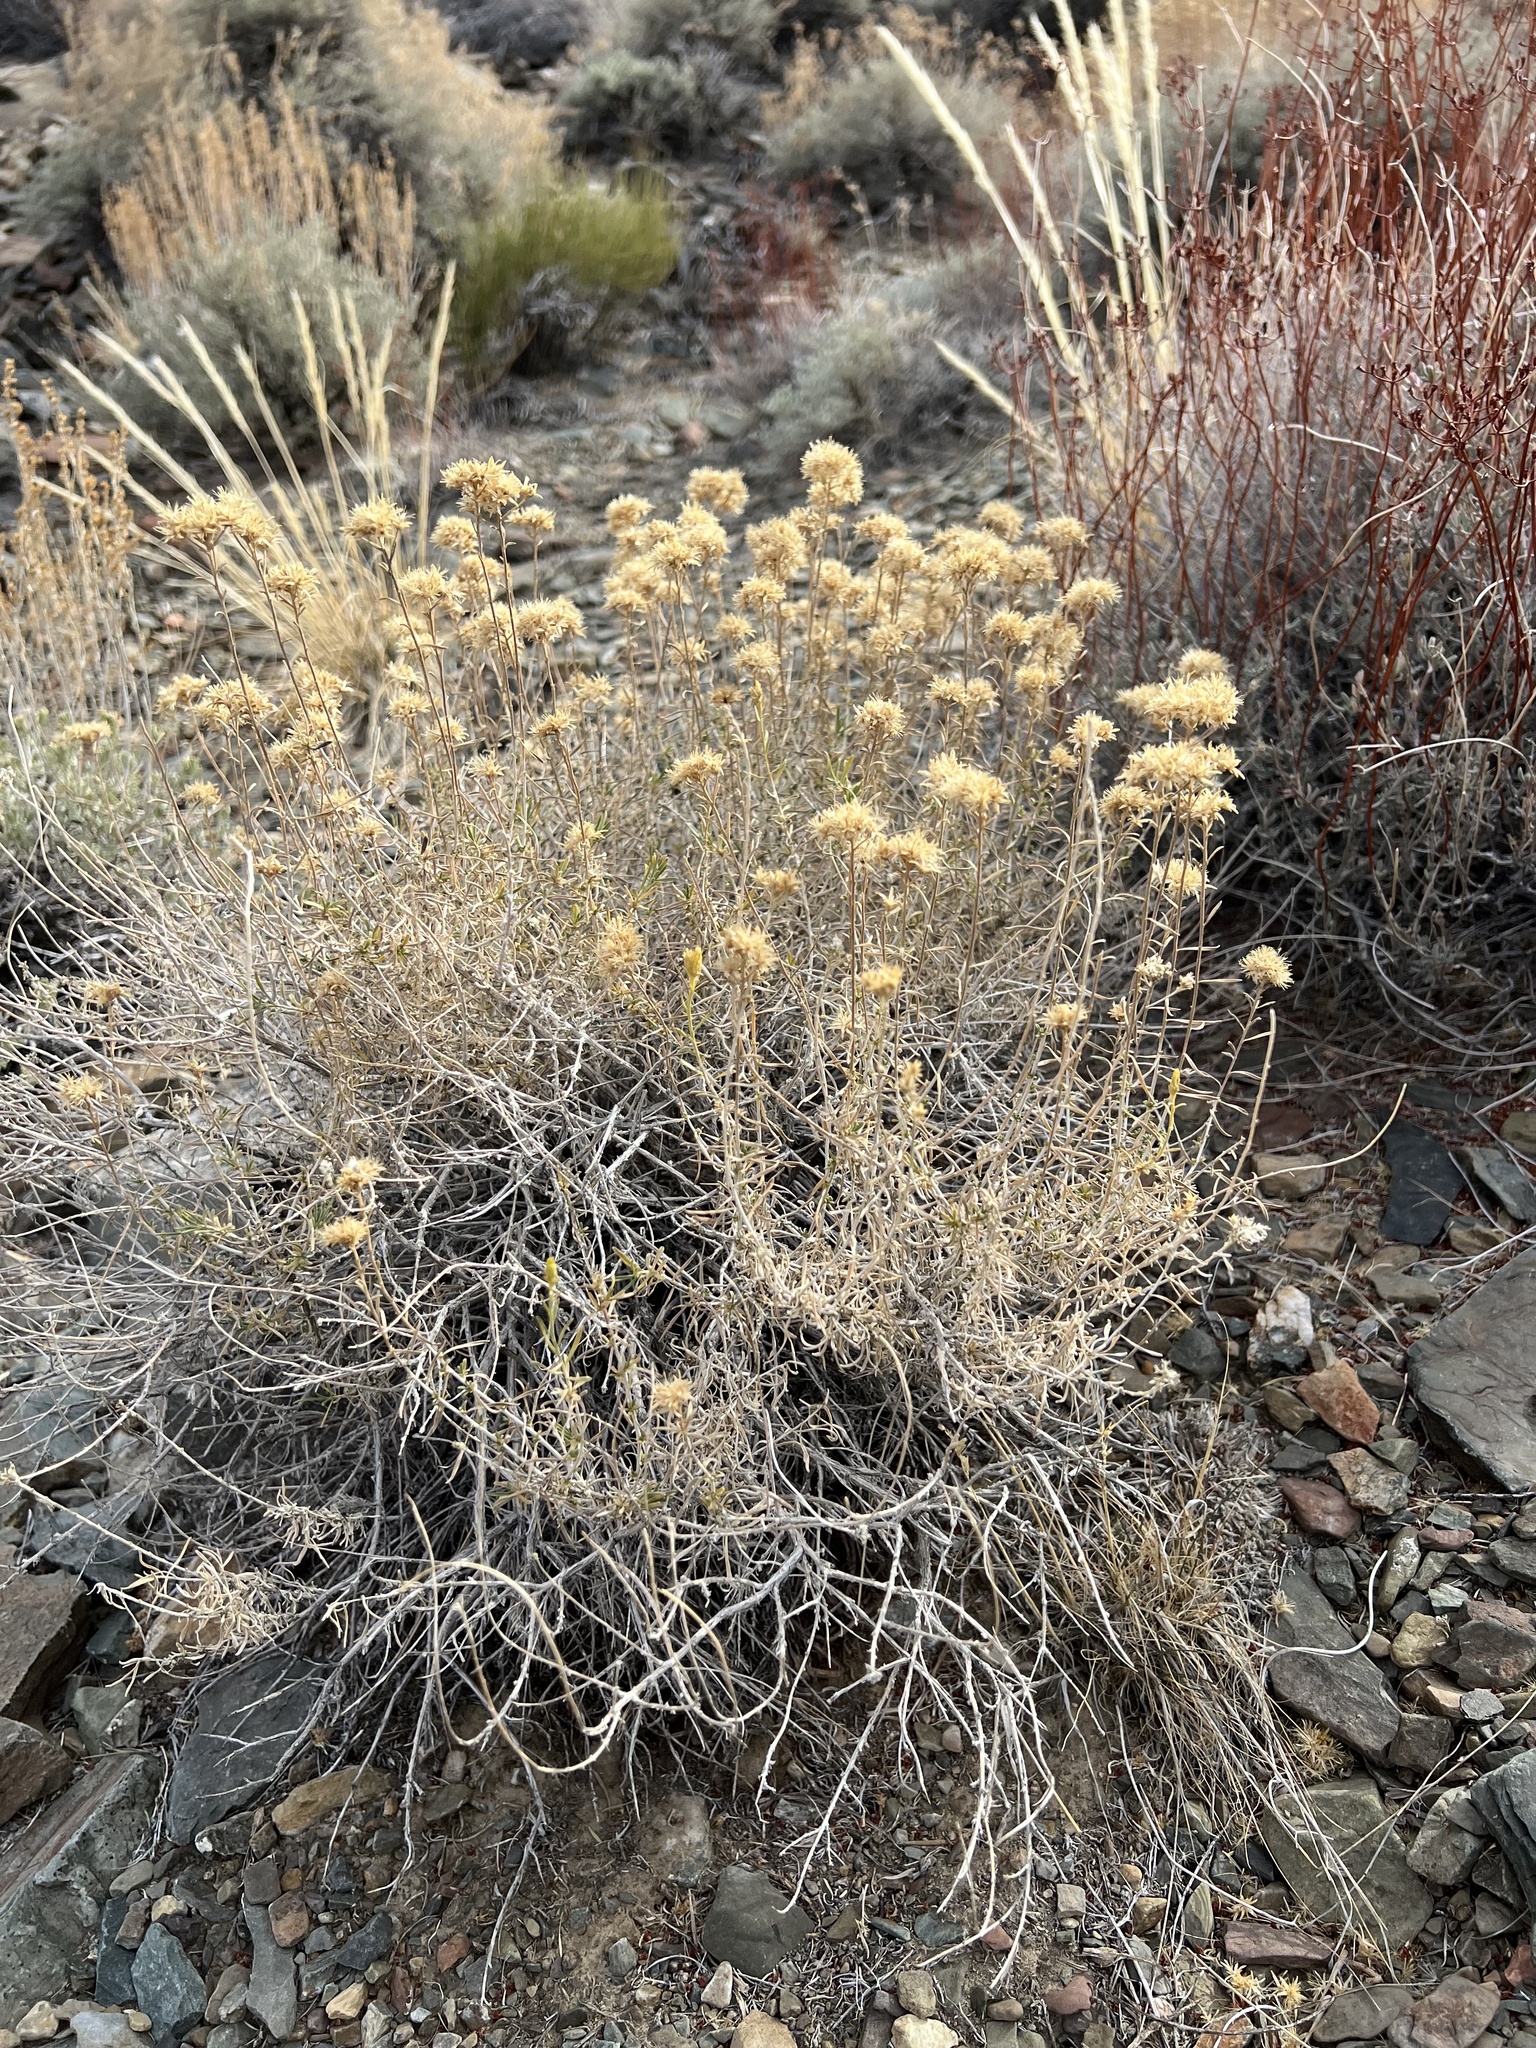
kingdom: Plantae
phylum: Tracheophyta
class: Magnoliopsida
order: Asterales
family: Asteraceae
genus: Chrysothamnus
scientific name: Chrysothamnus viscidiflorus
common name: Yellow rabbitbrush
